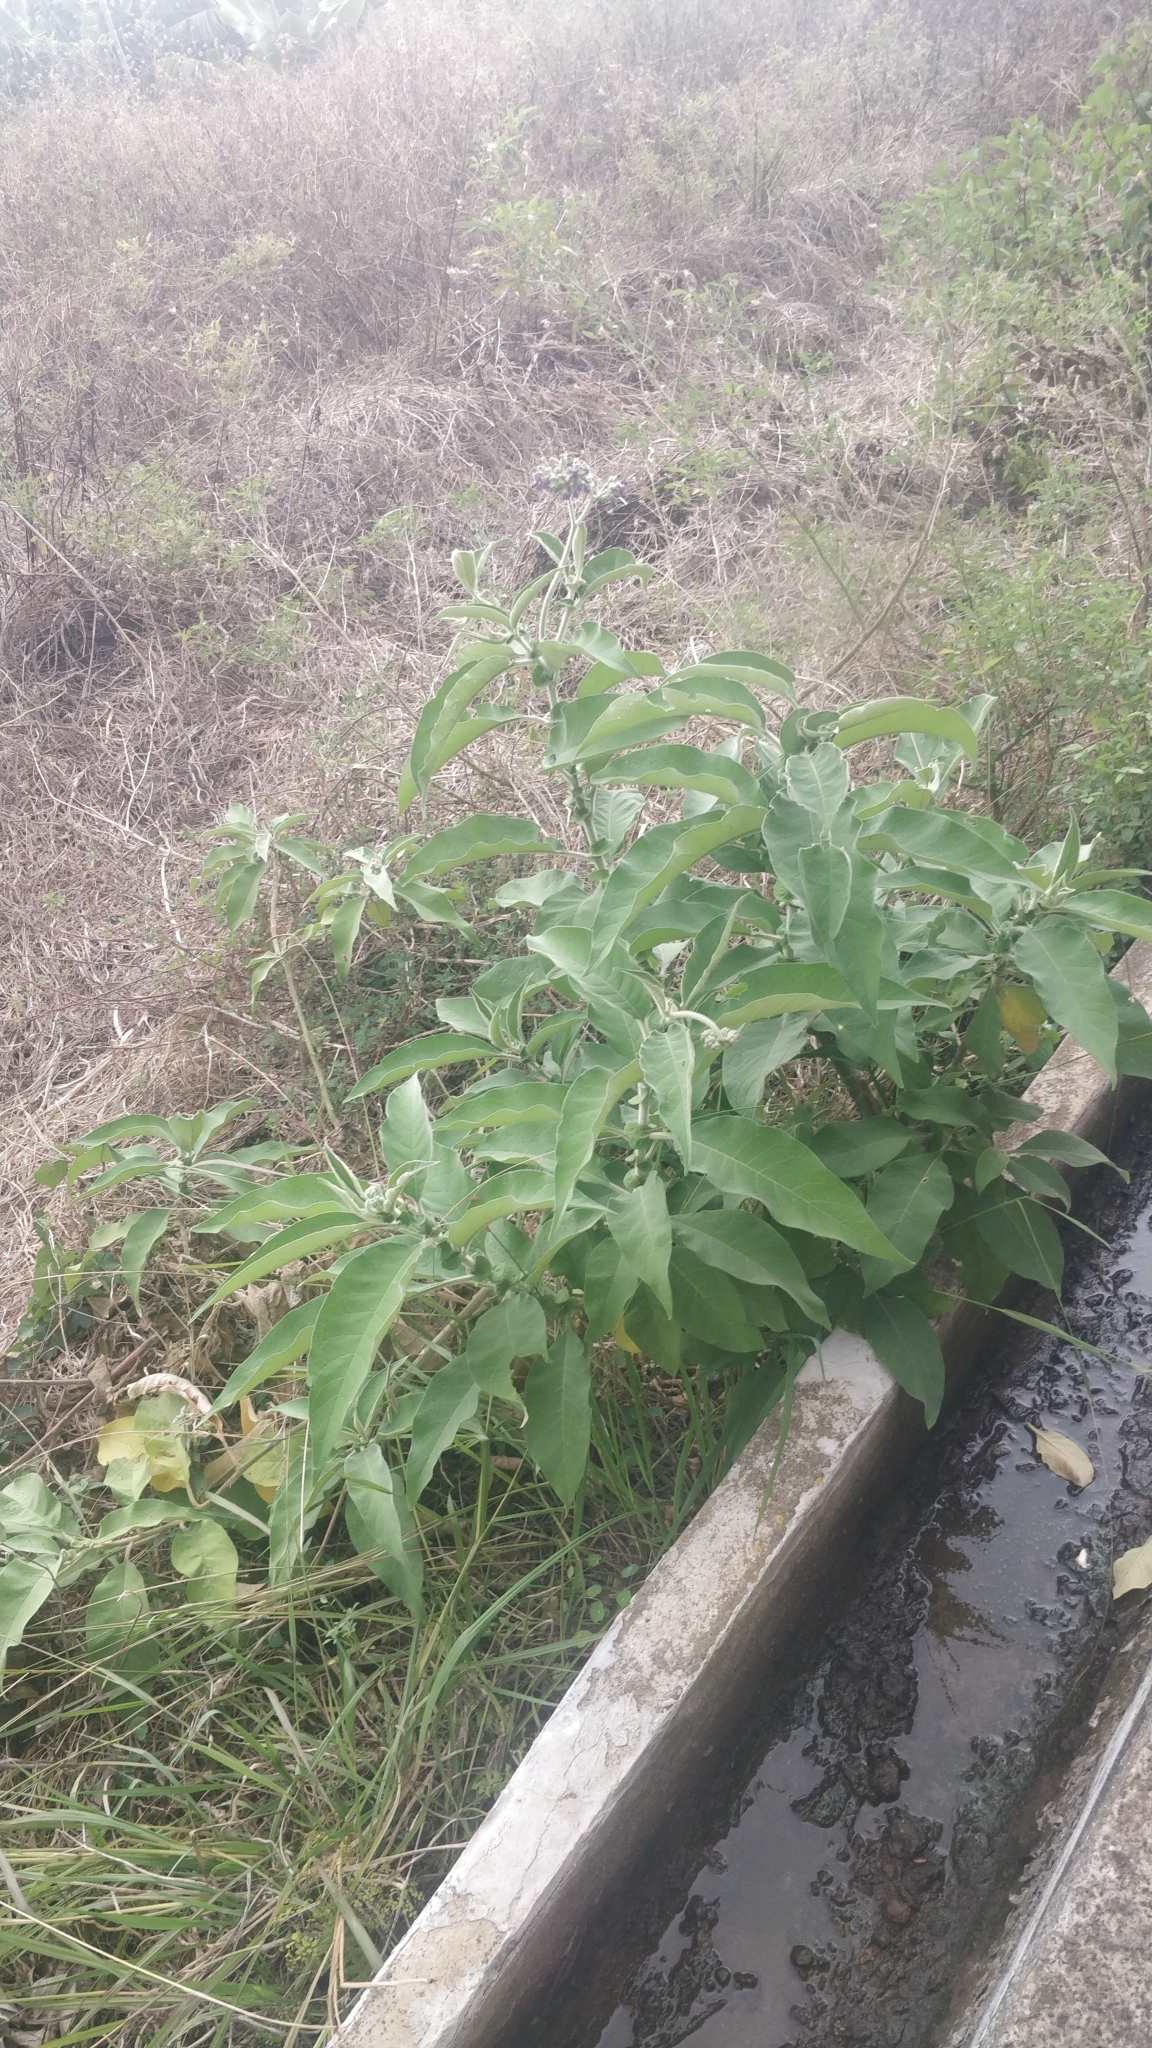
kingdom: Plantae
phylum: Tracheophyta
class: Magnoliopsida
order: Solanales
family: Solanaceae
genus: Solanum
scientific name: Solanum mauritianum
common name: Earleaf nightshade
